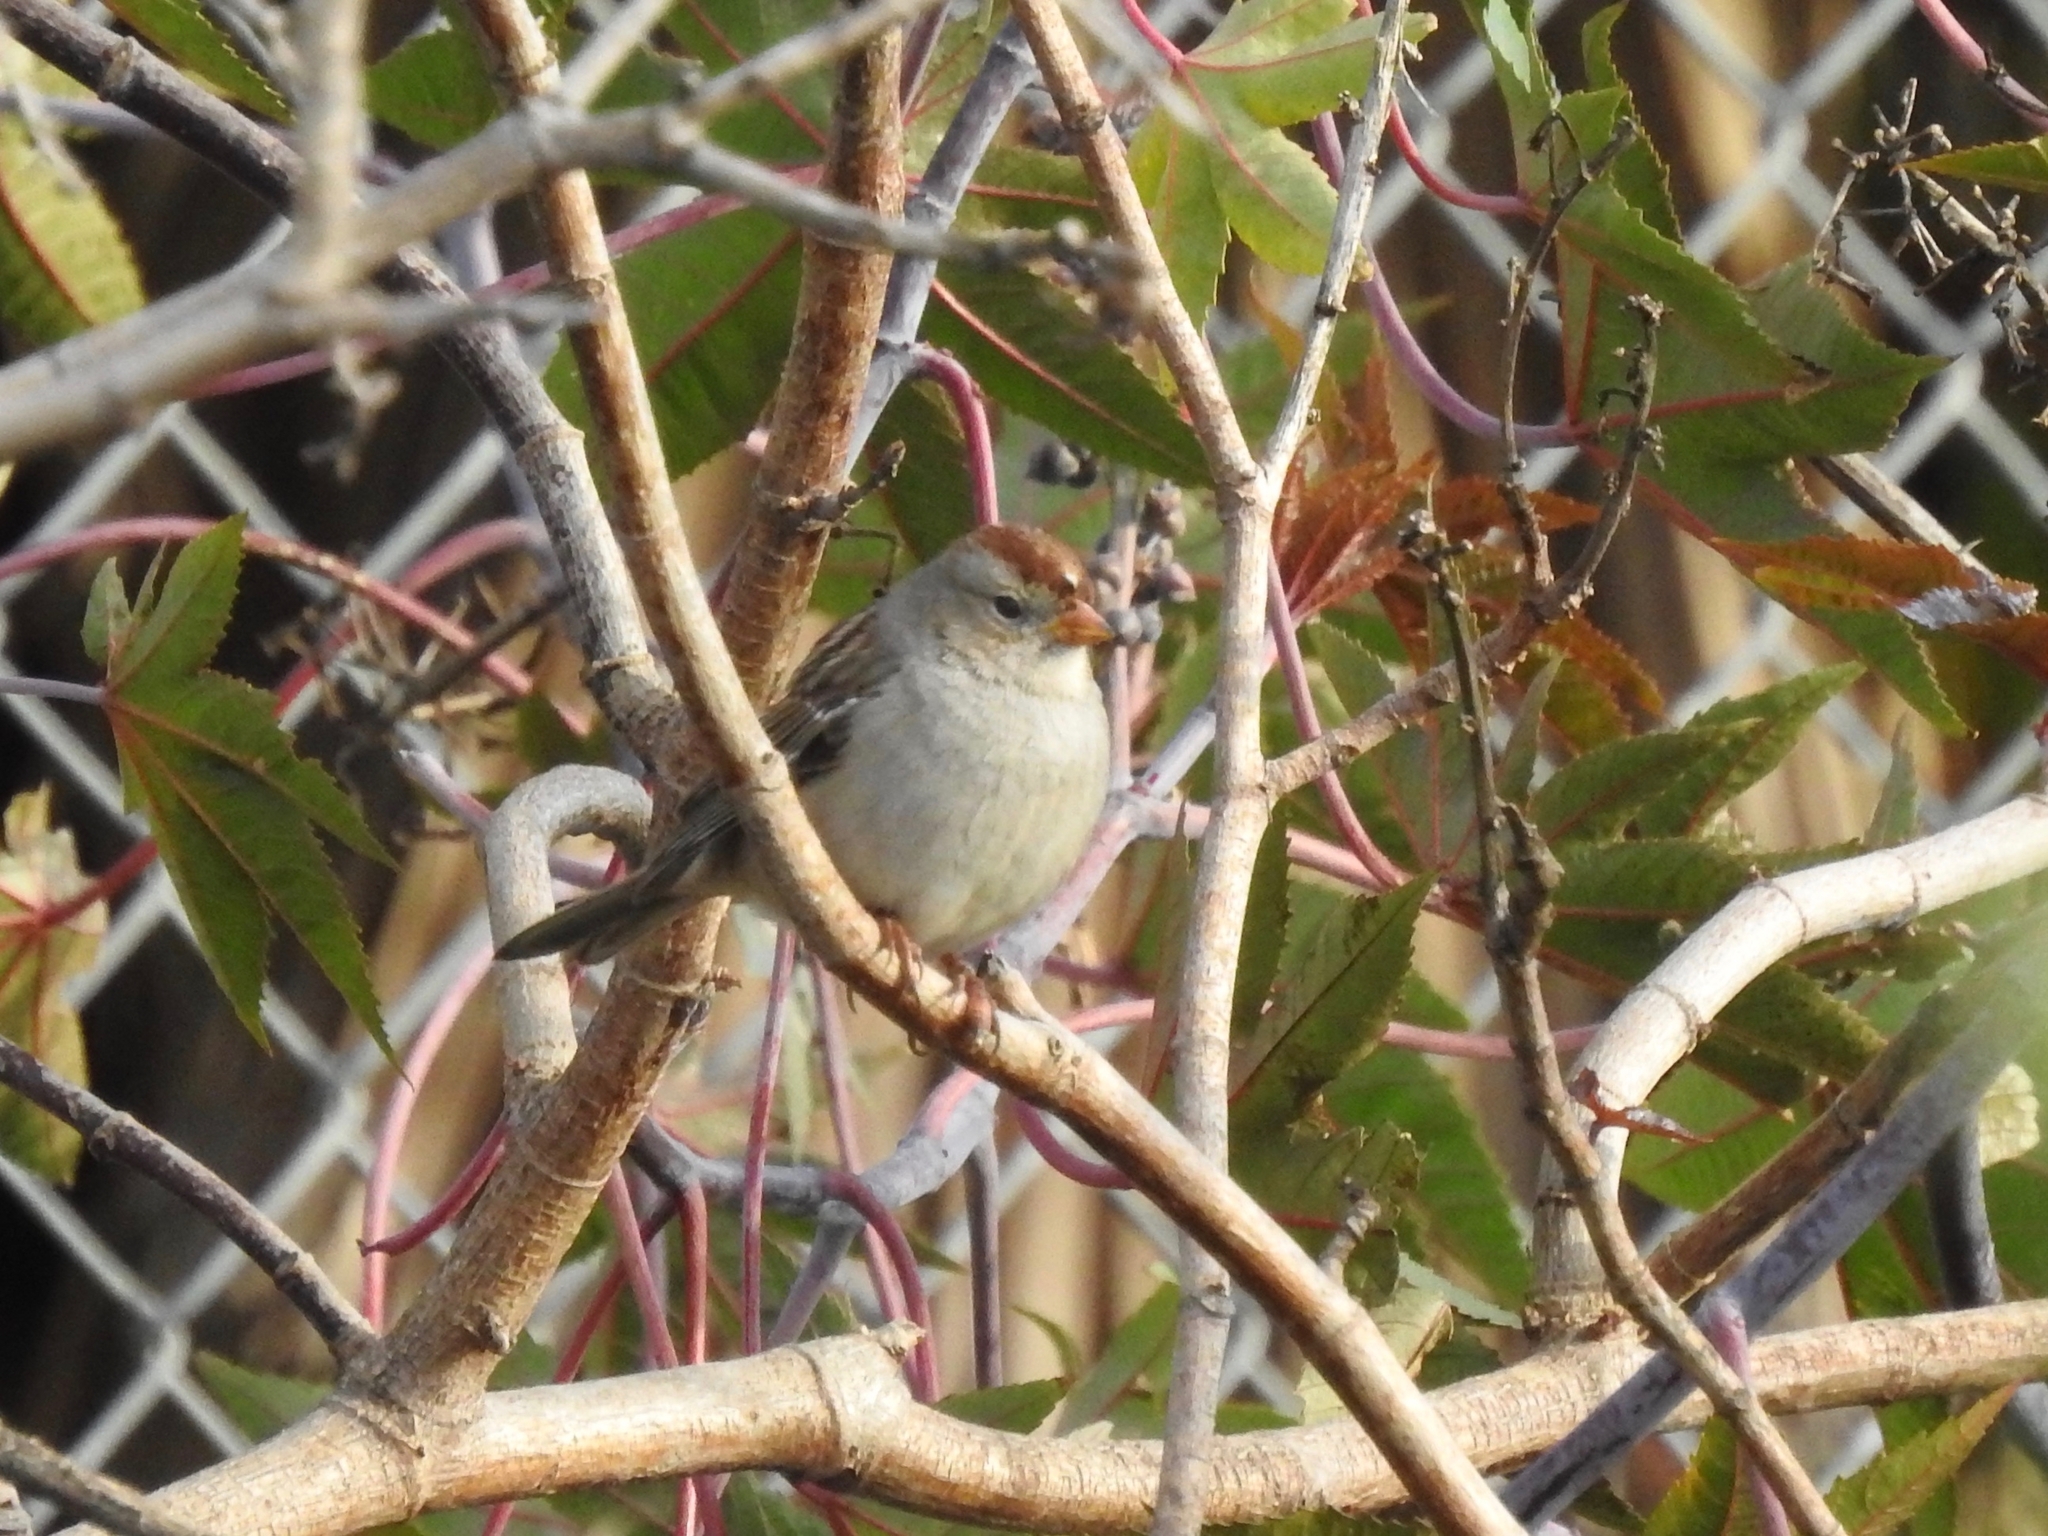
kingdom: Animalia
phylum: Chordata
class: Aves
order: Passeriformes
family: Passerellidae
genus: Zonotrichia
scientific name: Zonotrichia leucophrys
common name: White-crowned sparrow
